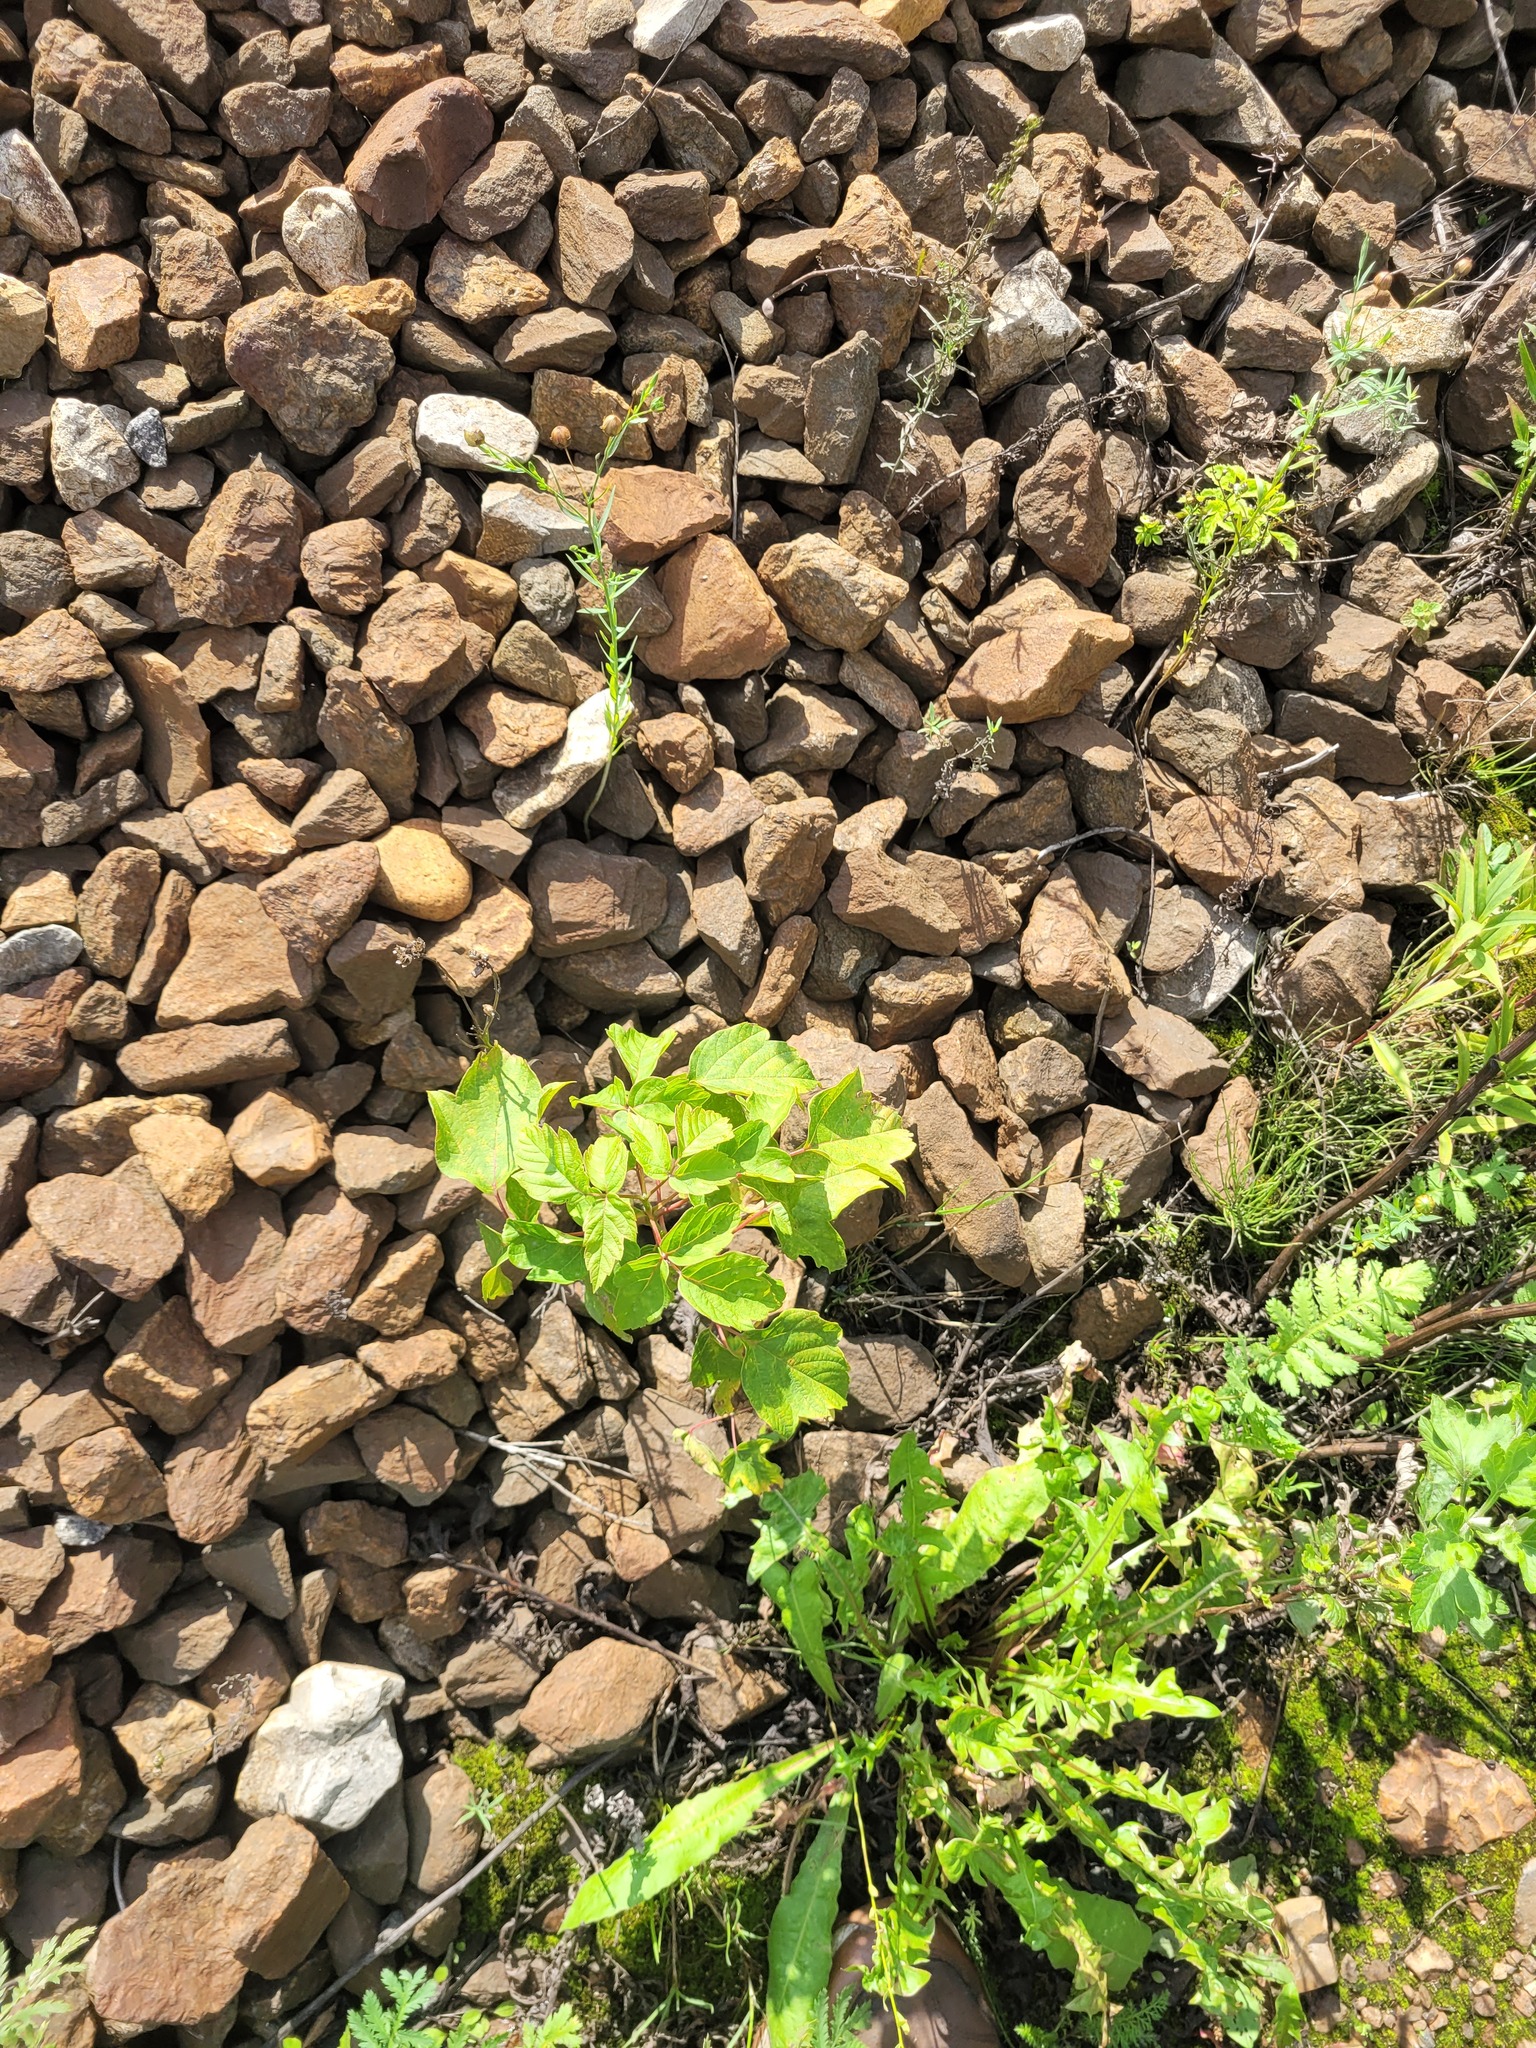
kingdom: Plantae
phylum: Tracheophyta
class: Magnoliopsida
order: Sapindales
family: Sapindaceae
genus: Acer
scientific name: Acer negundo
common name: Ashleaf maple
